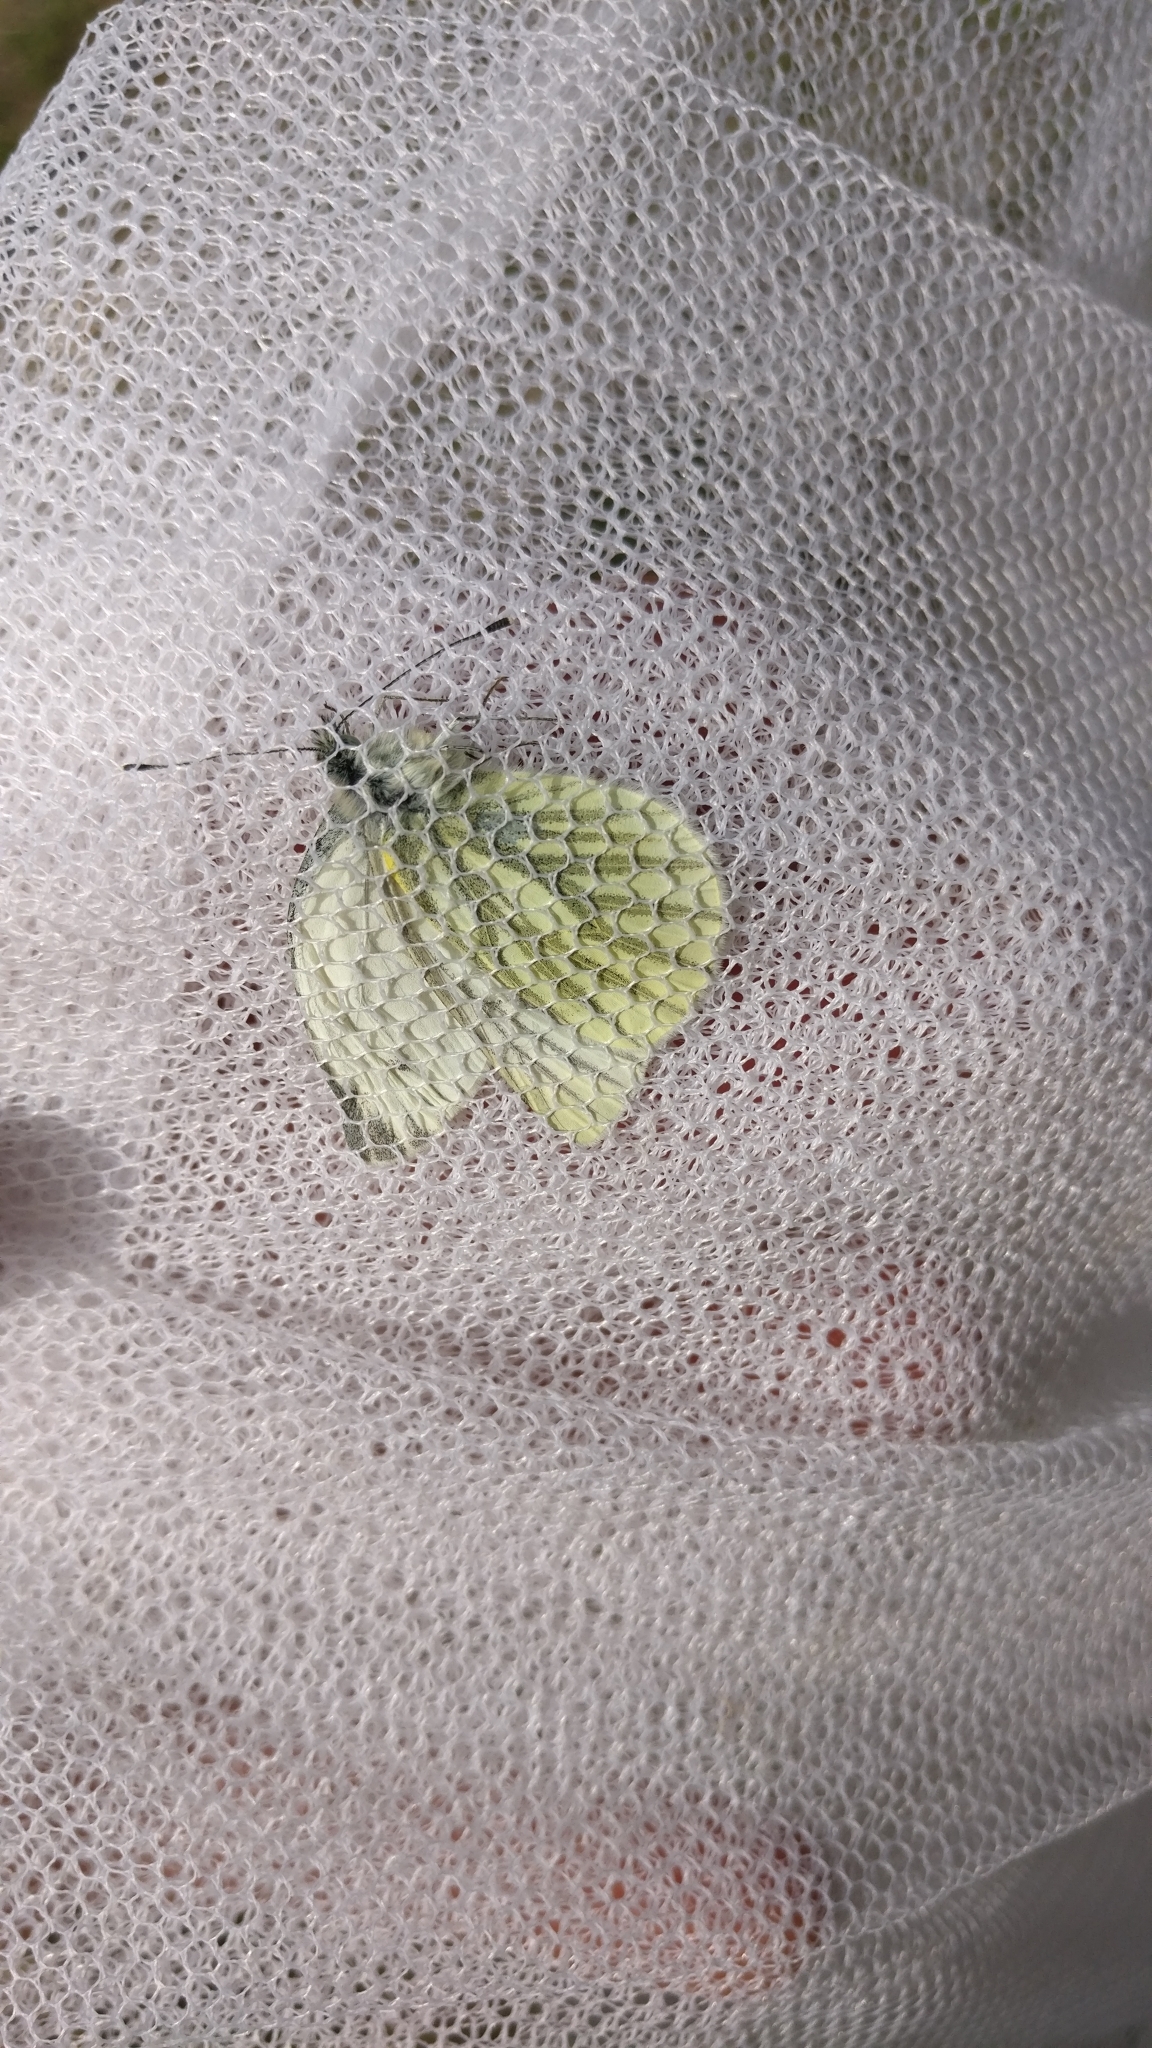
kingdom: Animalia
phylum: Arthropoda
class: Insecta
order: Lepidoptera
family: Pieridae
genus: Pieris
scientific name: Pieris napi
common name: Green-veined white
